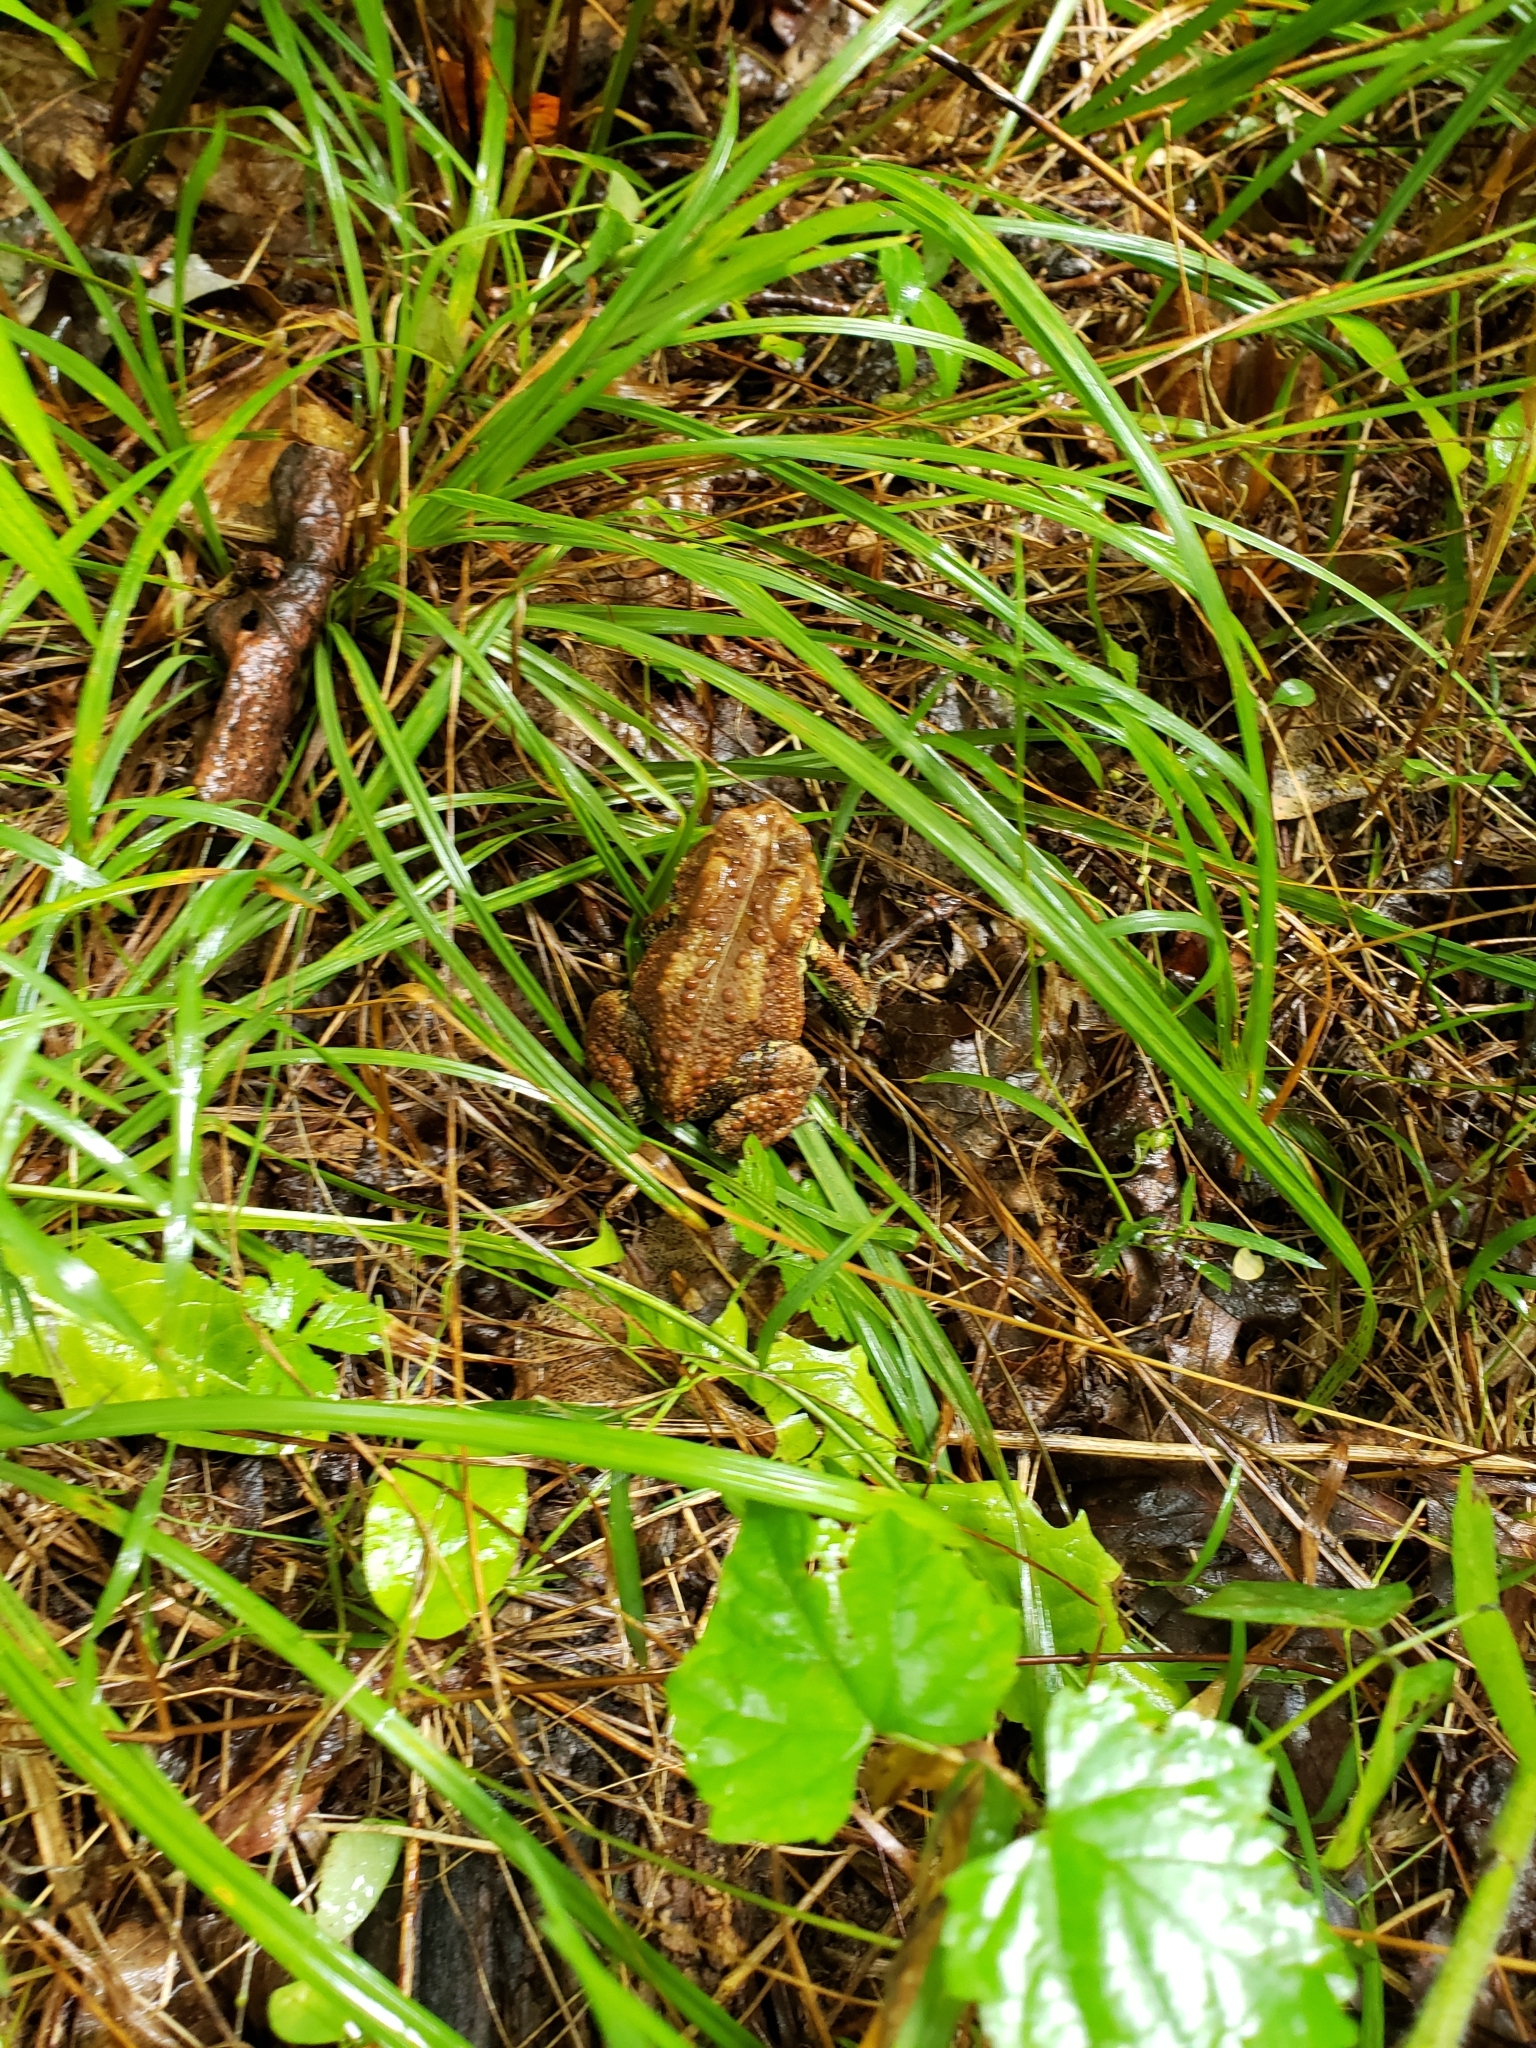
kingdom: Animalia
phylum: Chordata
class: Amphibia
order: Anura
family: Bufonidae
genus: Anaxyrus
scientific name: Anaxyrus americanus
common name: American toad
